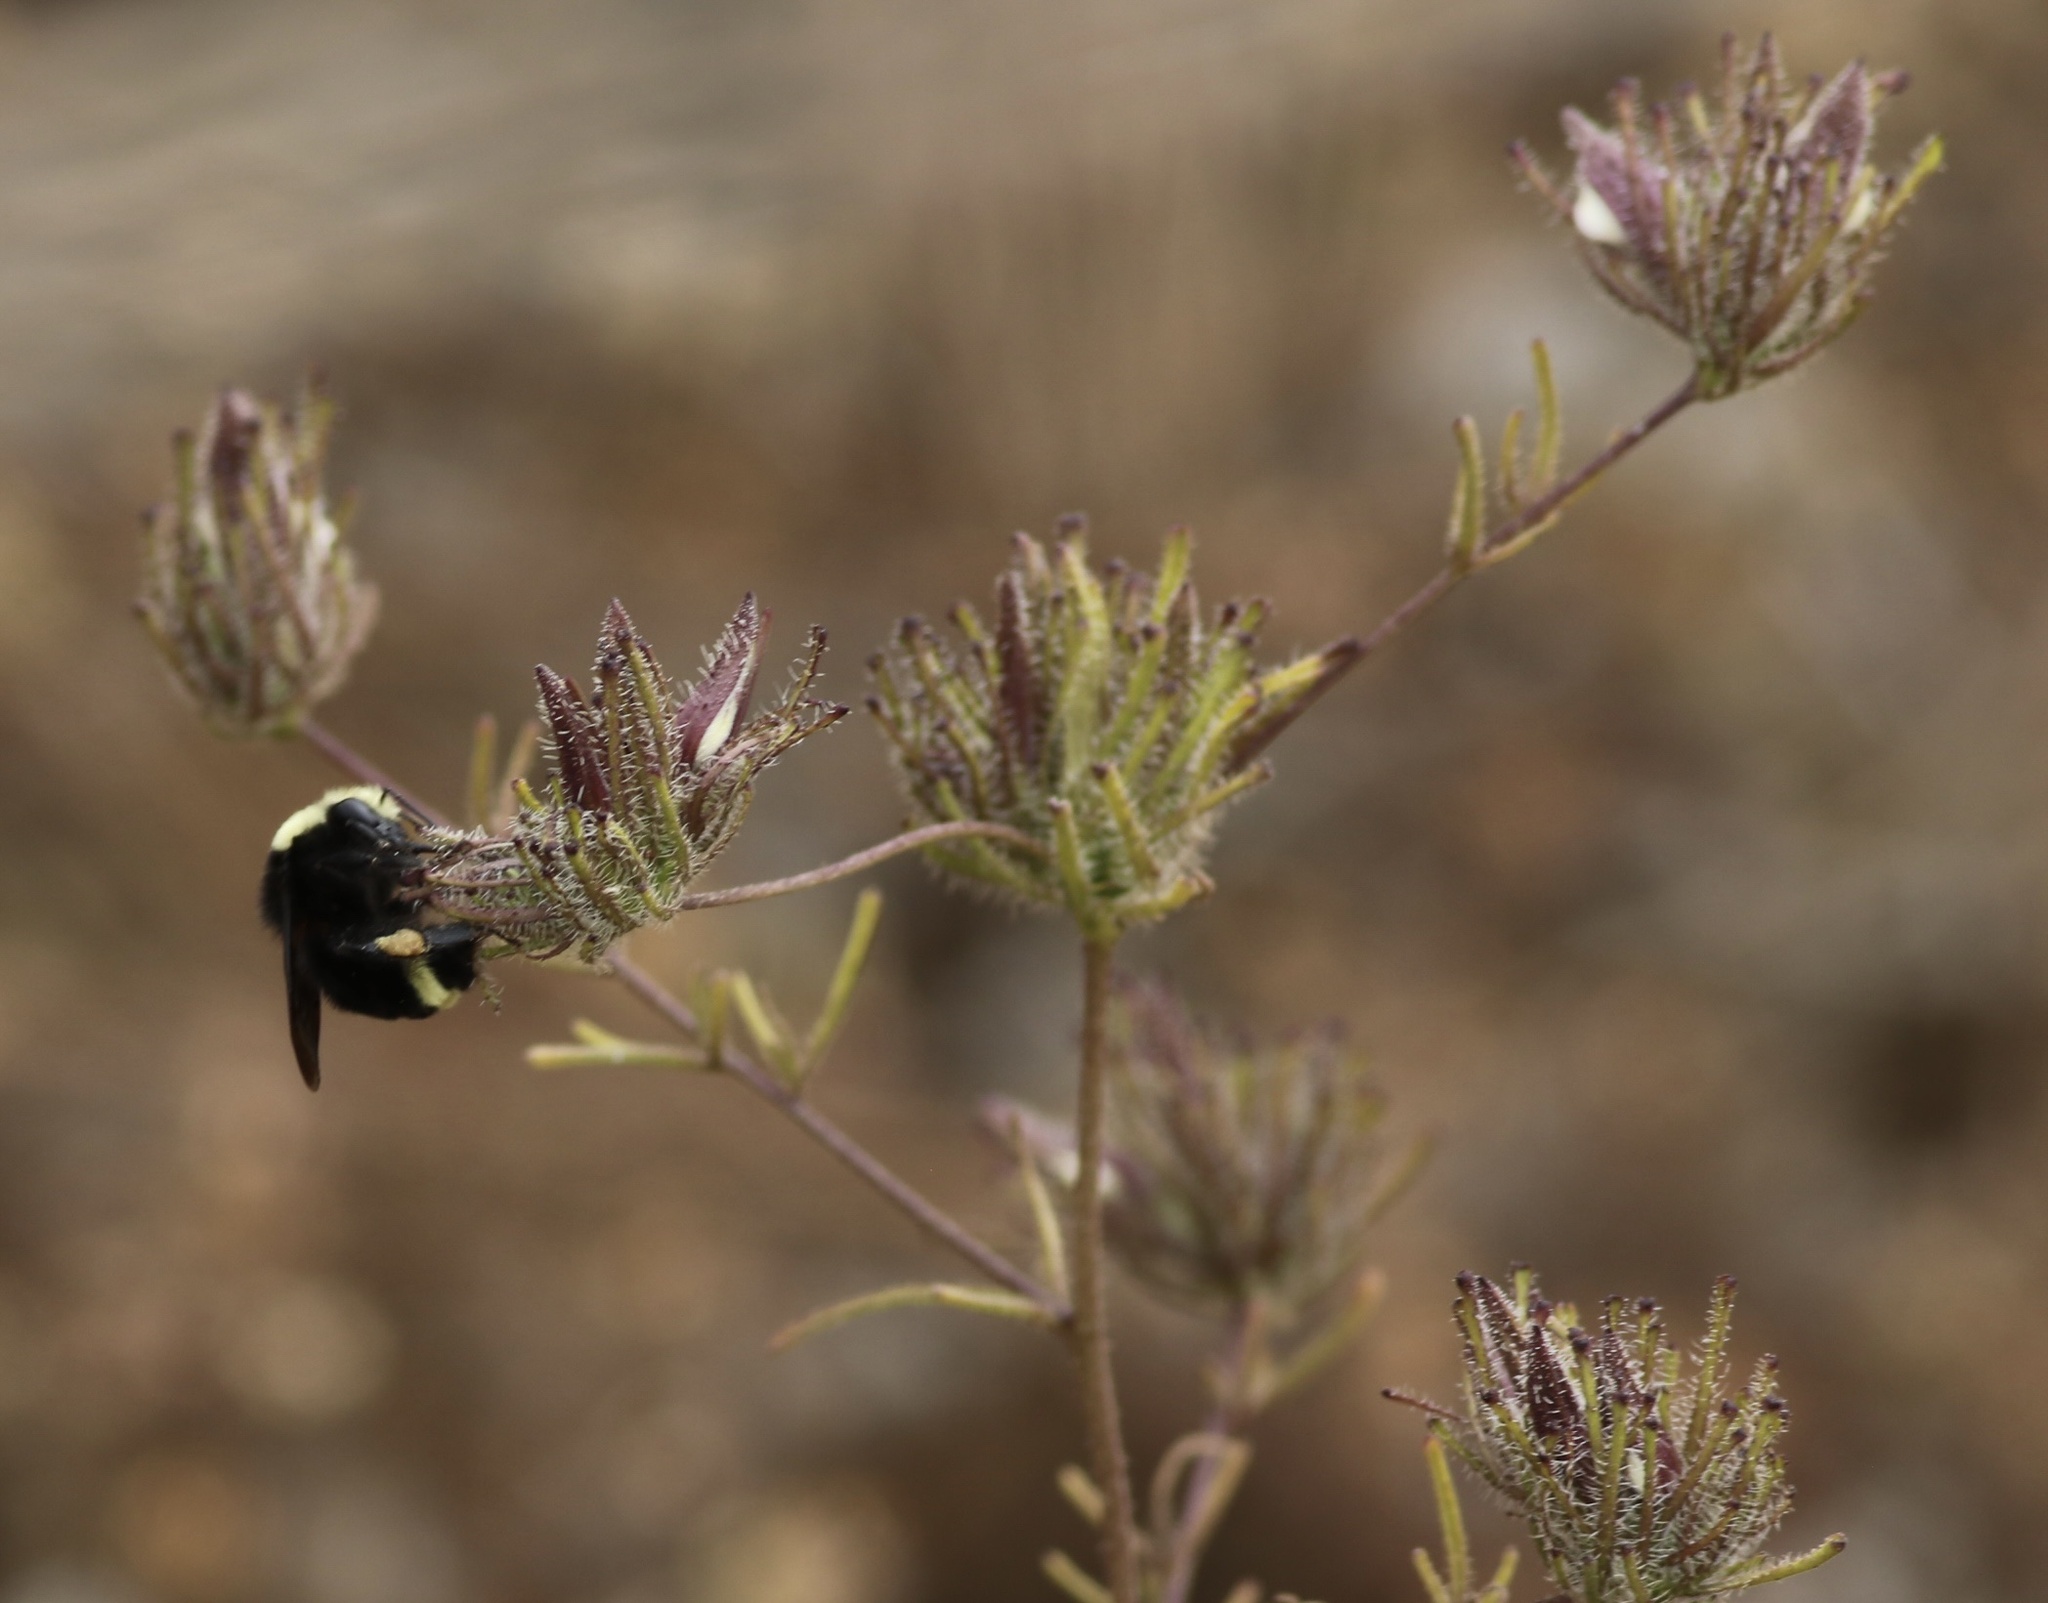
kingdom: Plantae
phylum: Tracheophyta
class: Magnoliopsida
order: Lamiales
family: Orobanchaceae
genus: Cordylanthus
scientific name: Cordylanthus rigidus
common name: Stiff-branch bird's-beak
